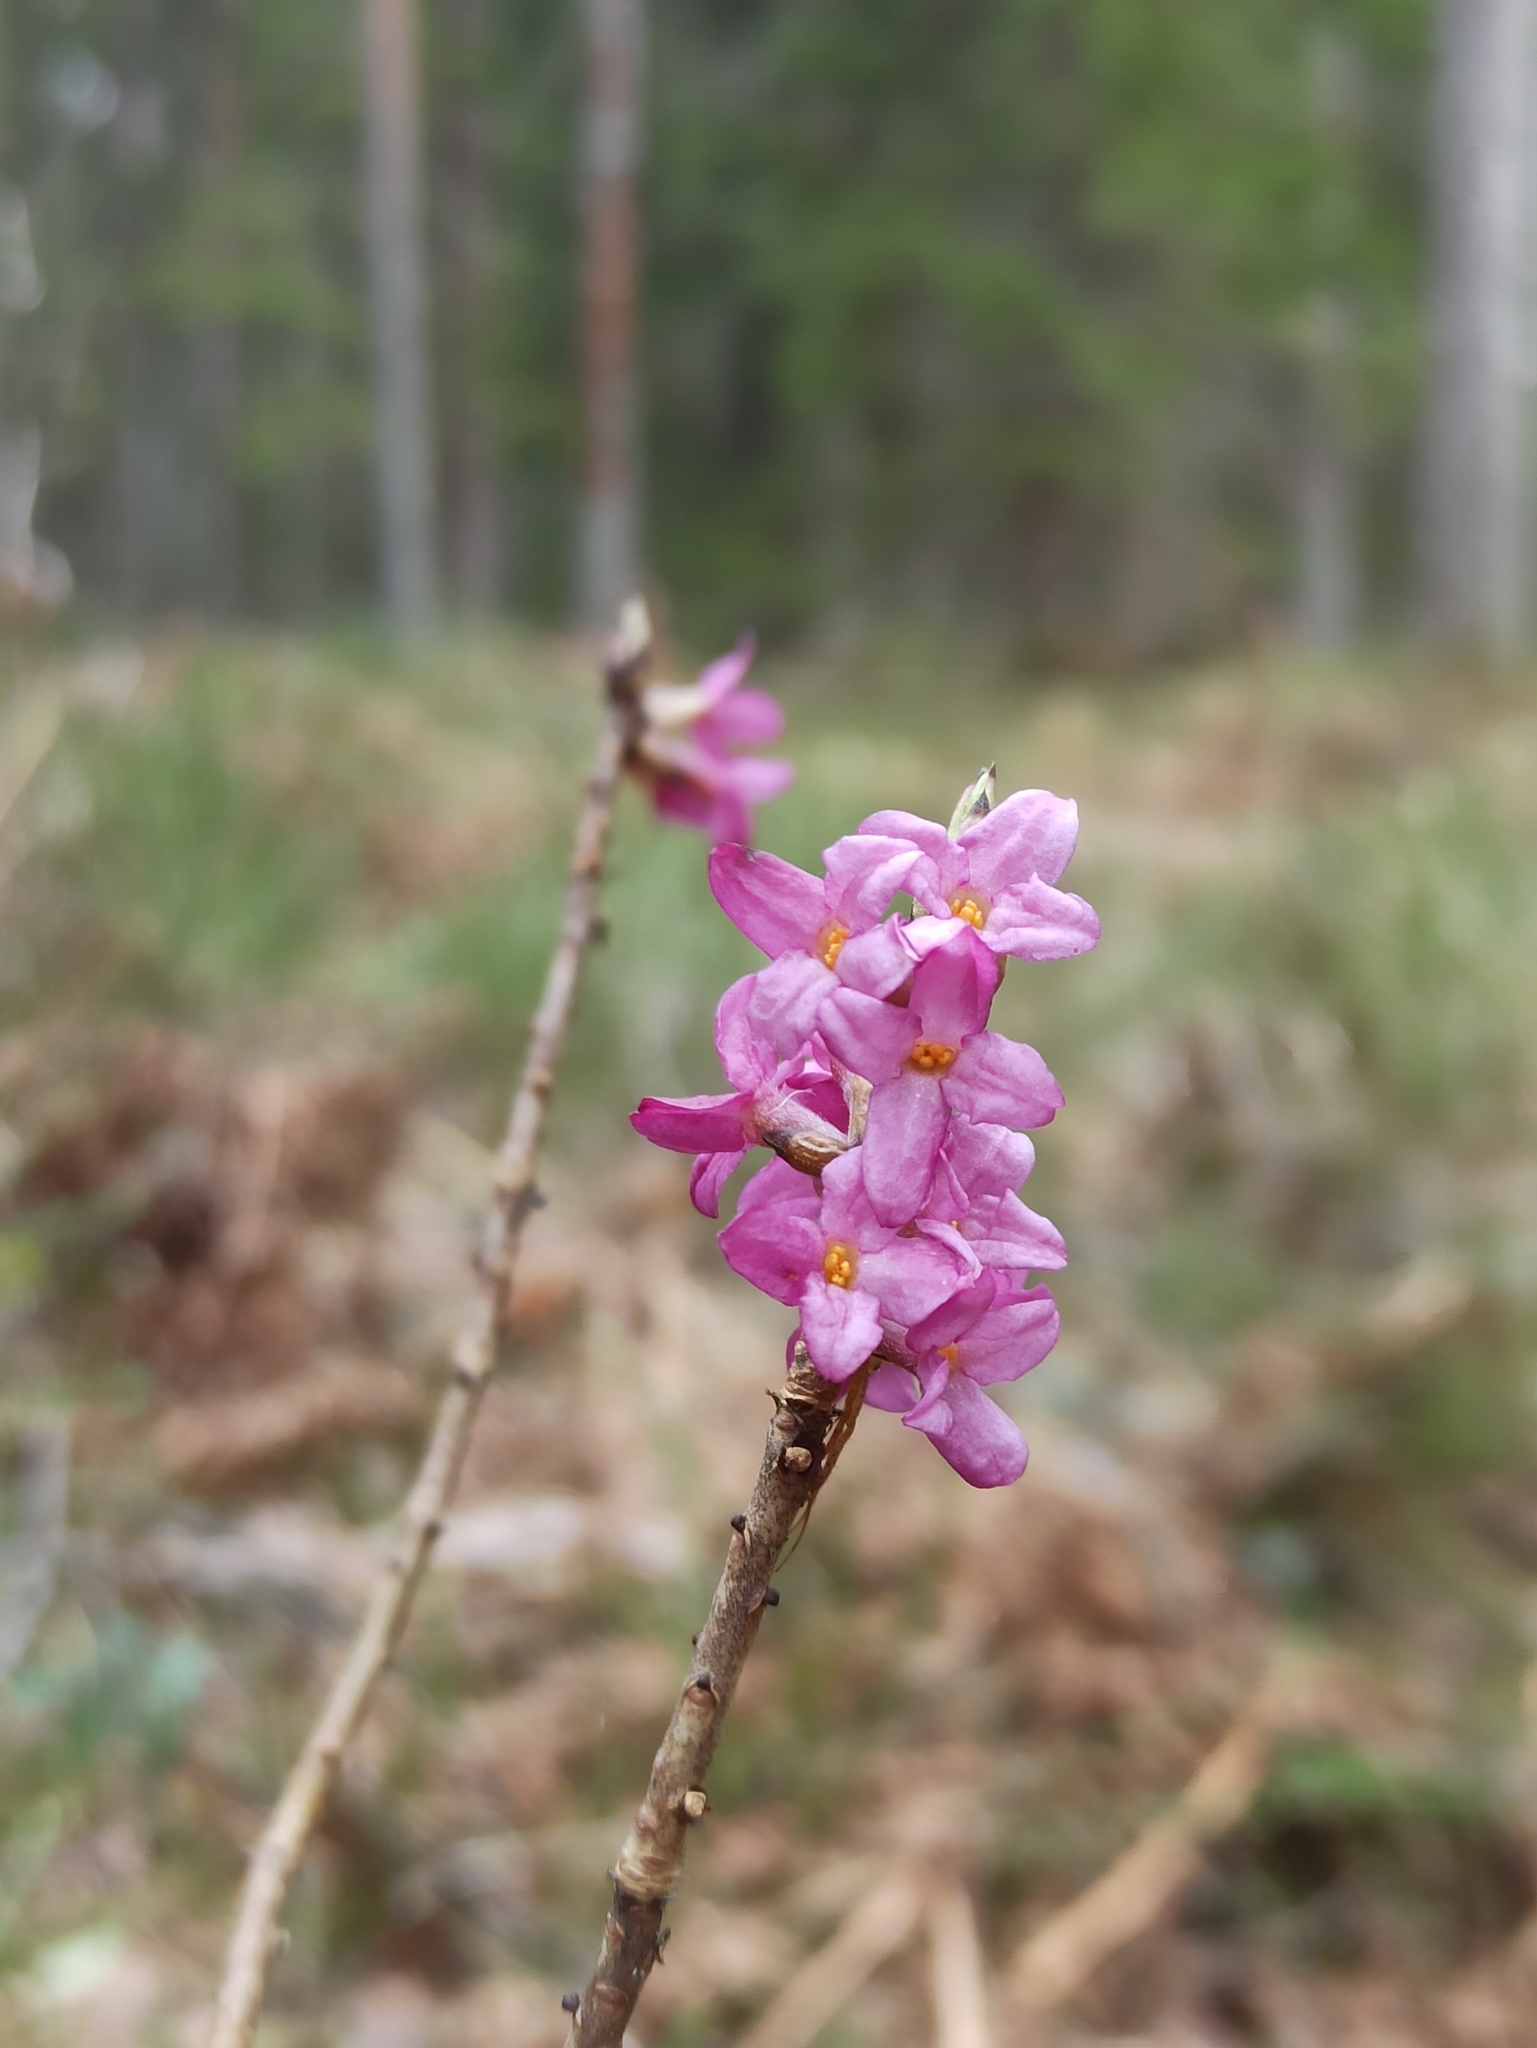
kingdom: Plantae
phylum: Tracheophyta
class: Magnoliopsida
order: Malvales
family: Thymelaeaceae
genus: Daphne
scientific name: Daphne mezereum
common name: Mezereon
